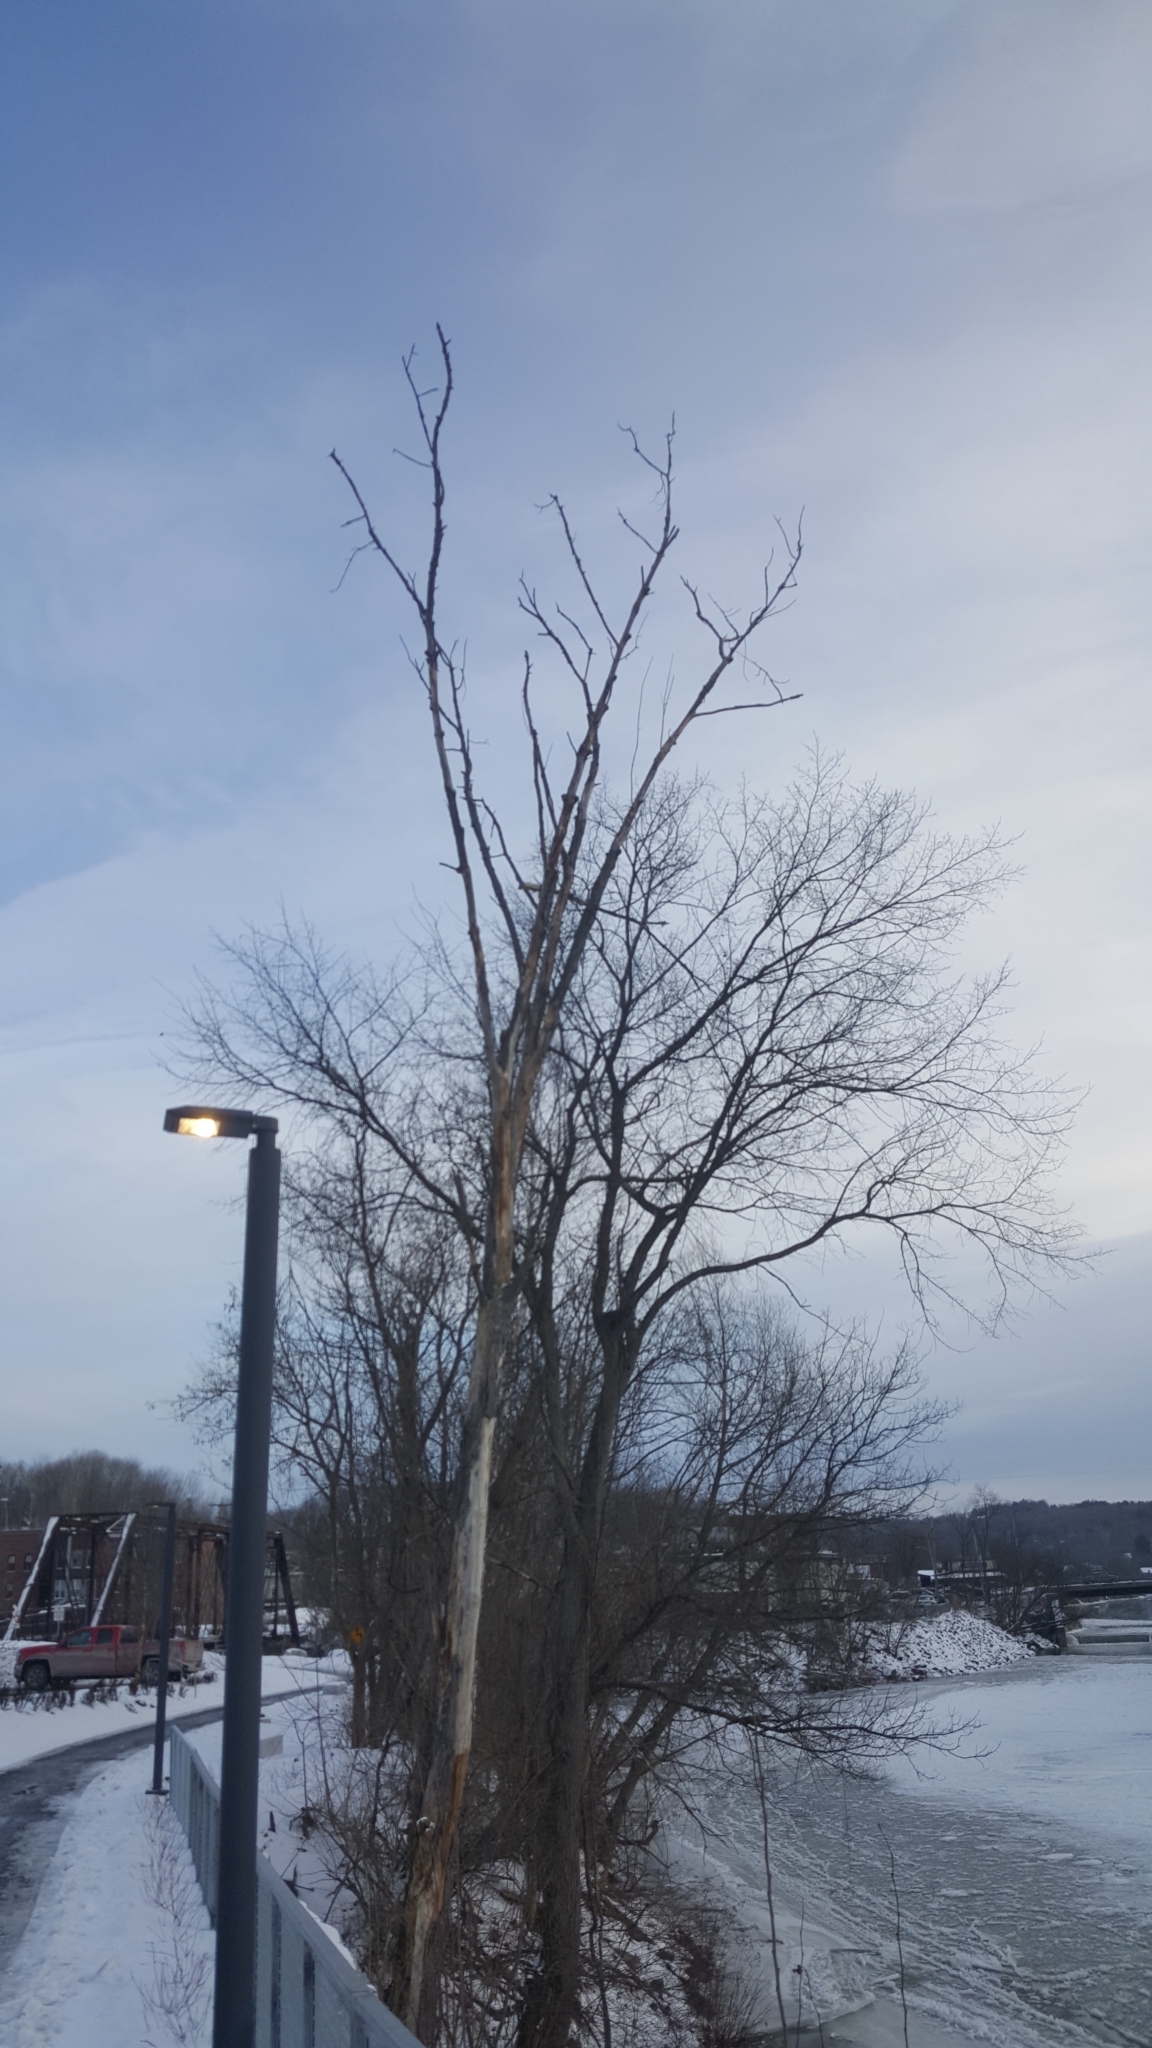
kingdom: Plantae
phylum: Tracheophyta
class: Magnoliopsida
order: Rosales
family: Ulmaceae
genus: Ulmus
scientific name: Ulmus americana
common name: American elm
